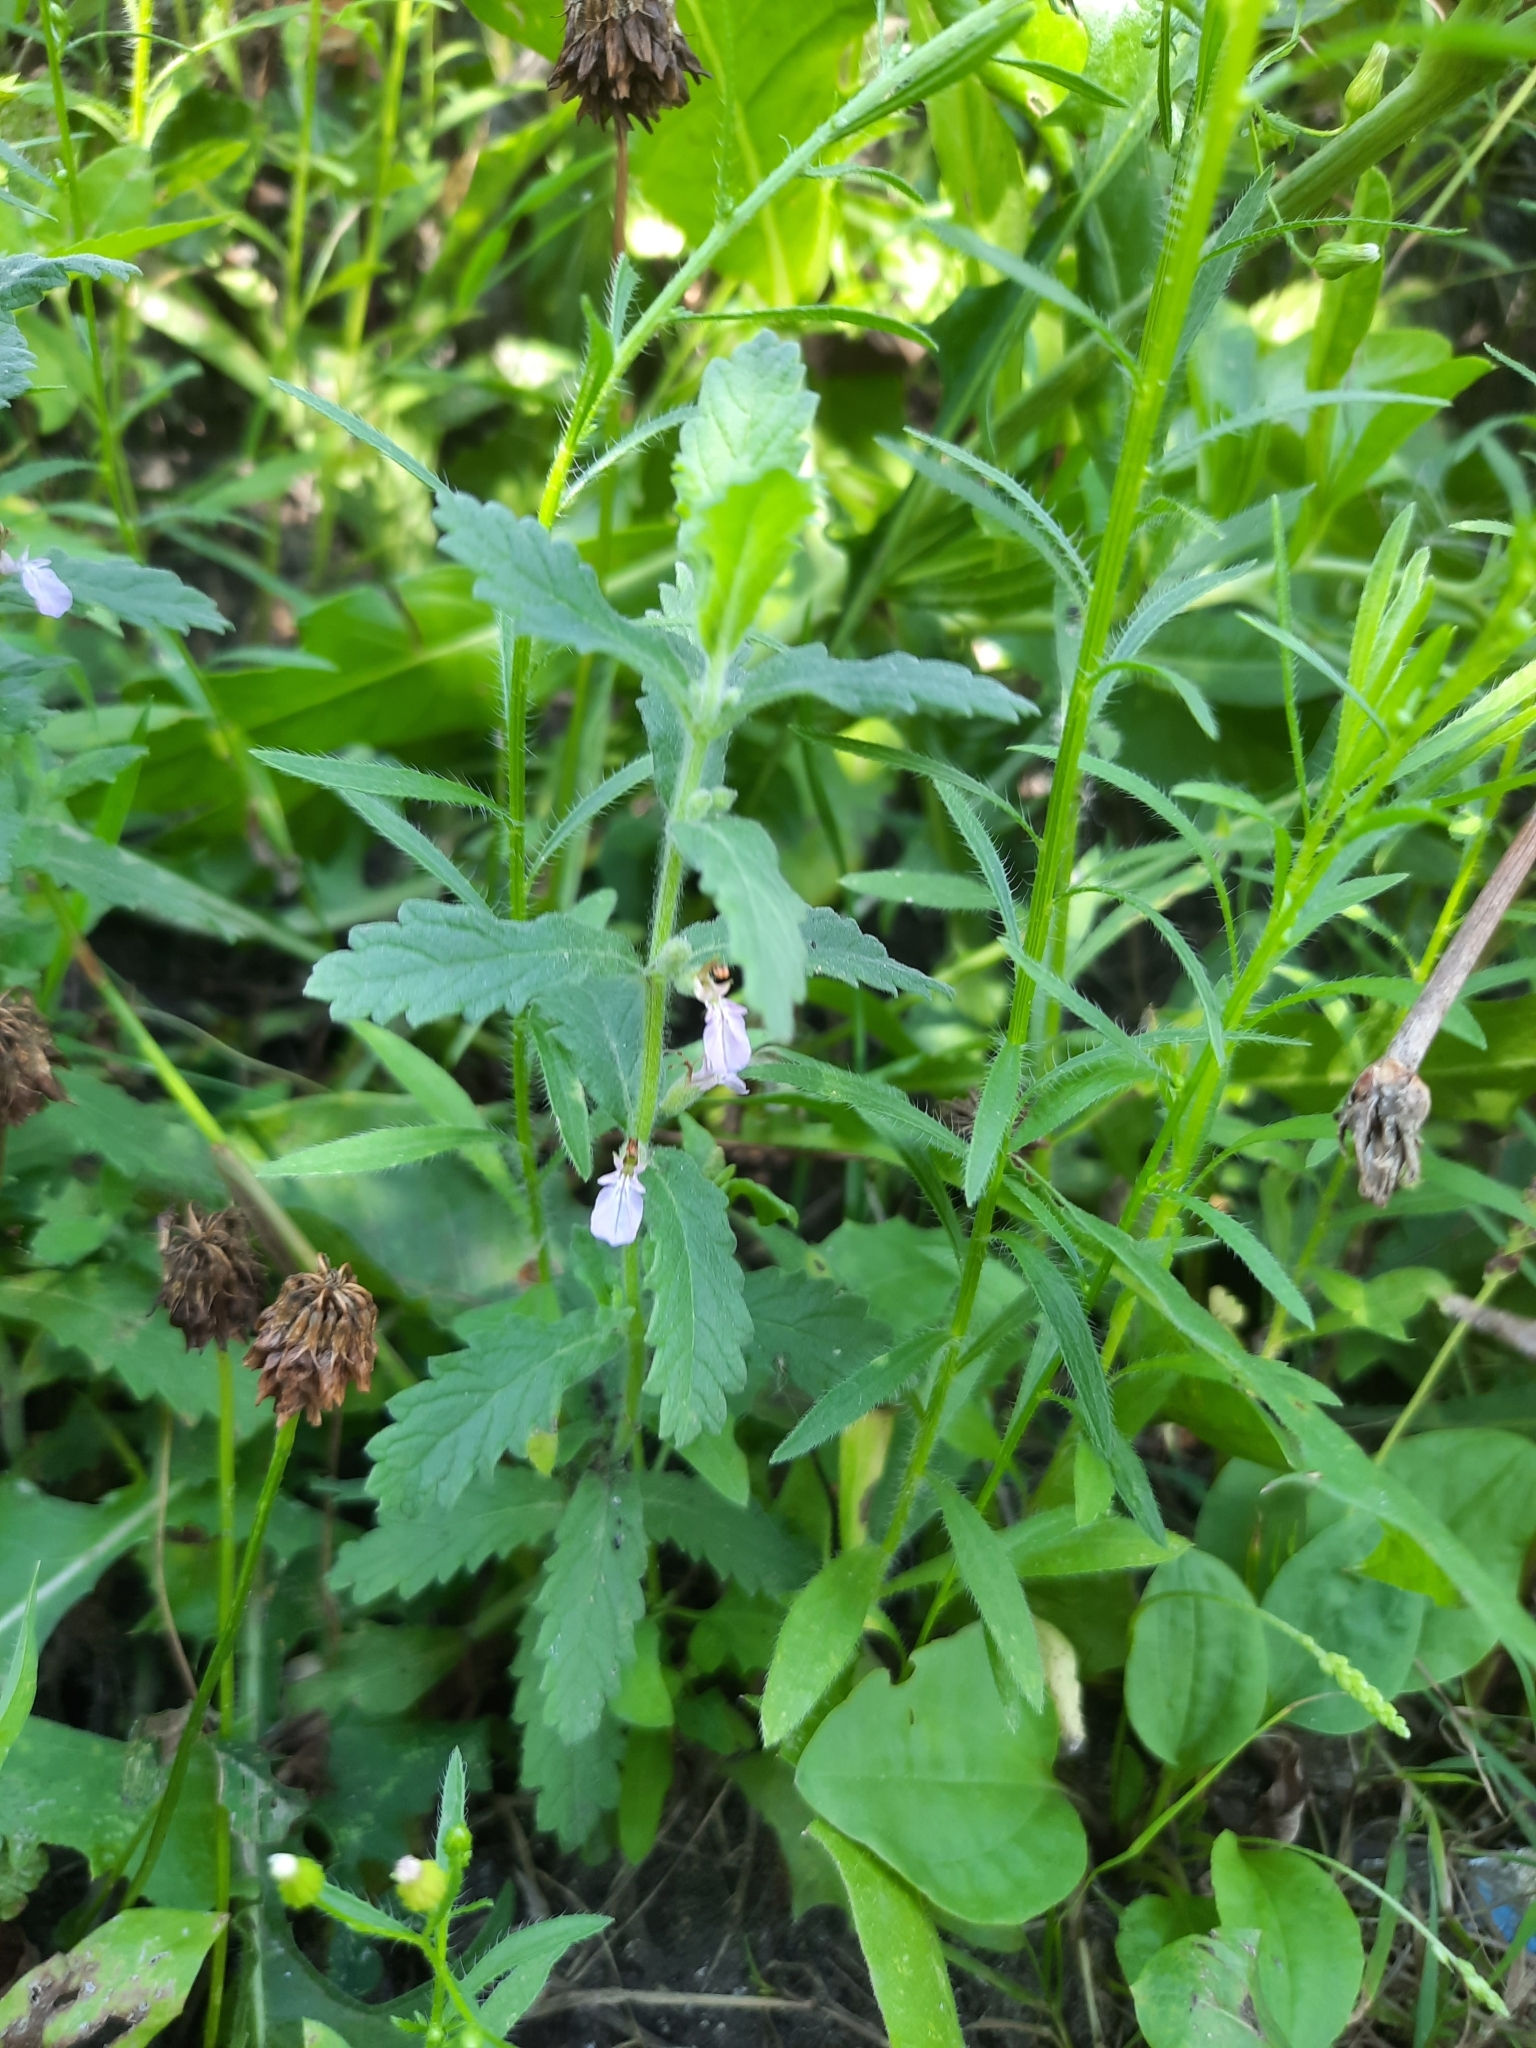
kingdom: Plantae
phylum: Tracheophyta
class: Magnoliopsida
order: Lamiales
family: Lamiaceae
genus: Teucrium
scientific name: Teucrium scordium
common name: Water germander
